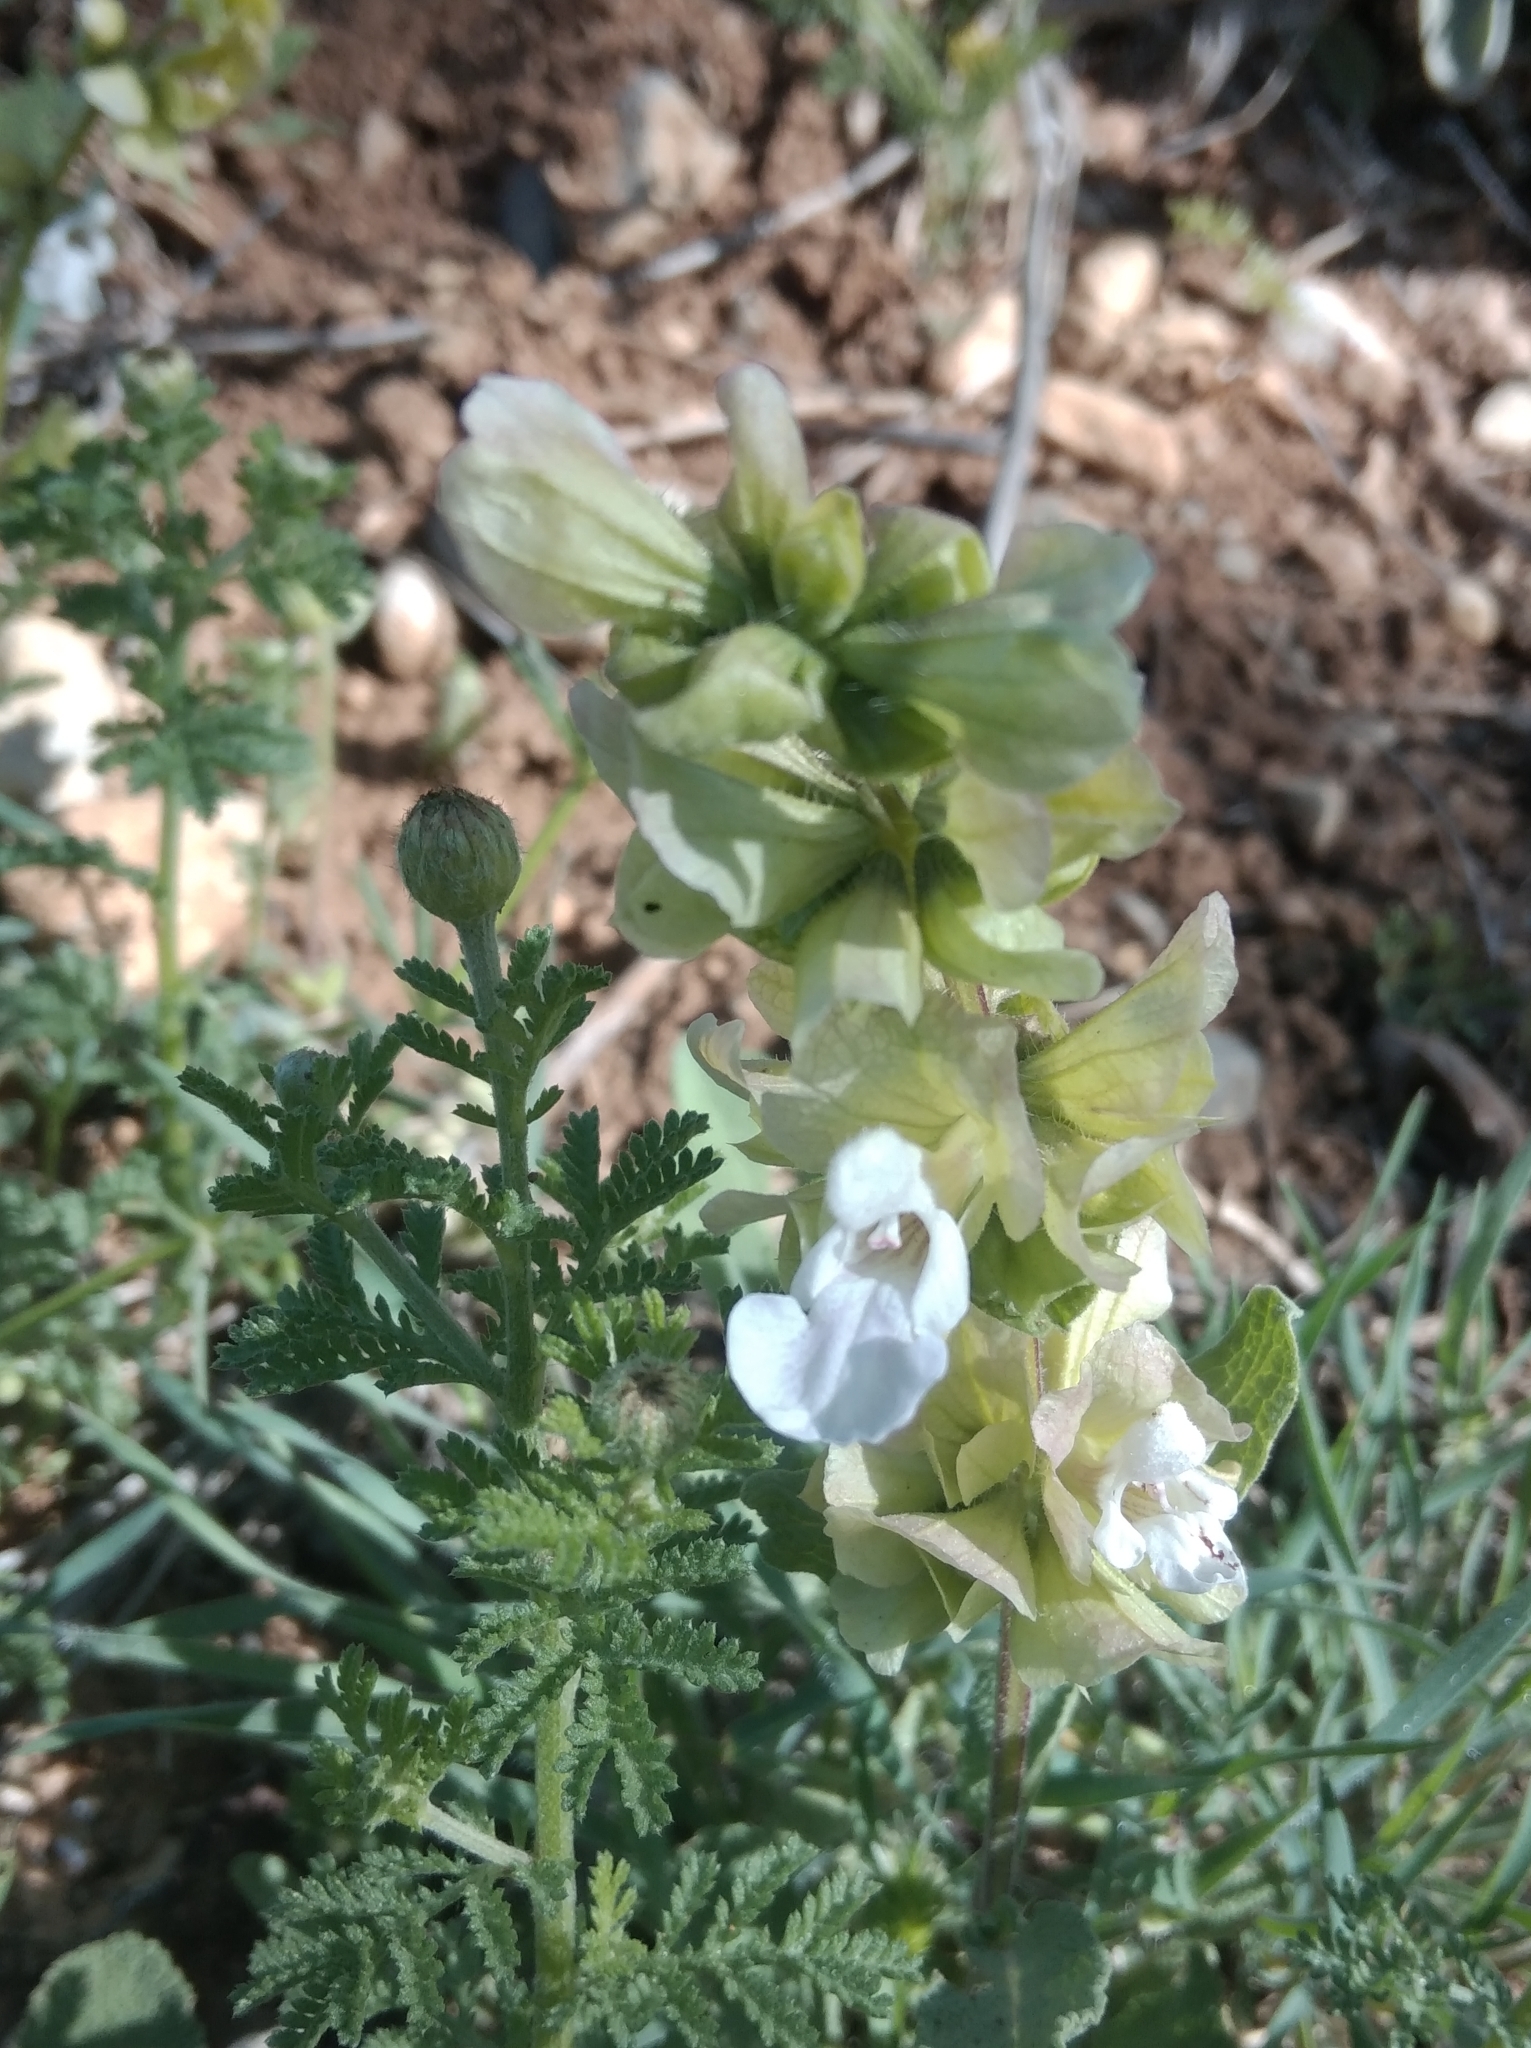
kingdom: Plantae
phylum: Tracheophyta
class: Magnoliopsida
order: Lamiales
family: Lamiaceae
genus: Salvia
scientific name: Salvia absconditiflora
